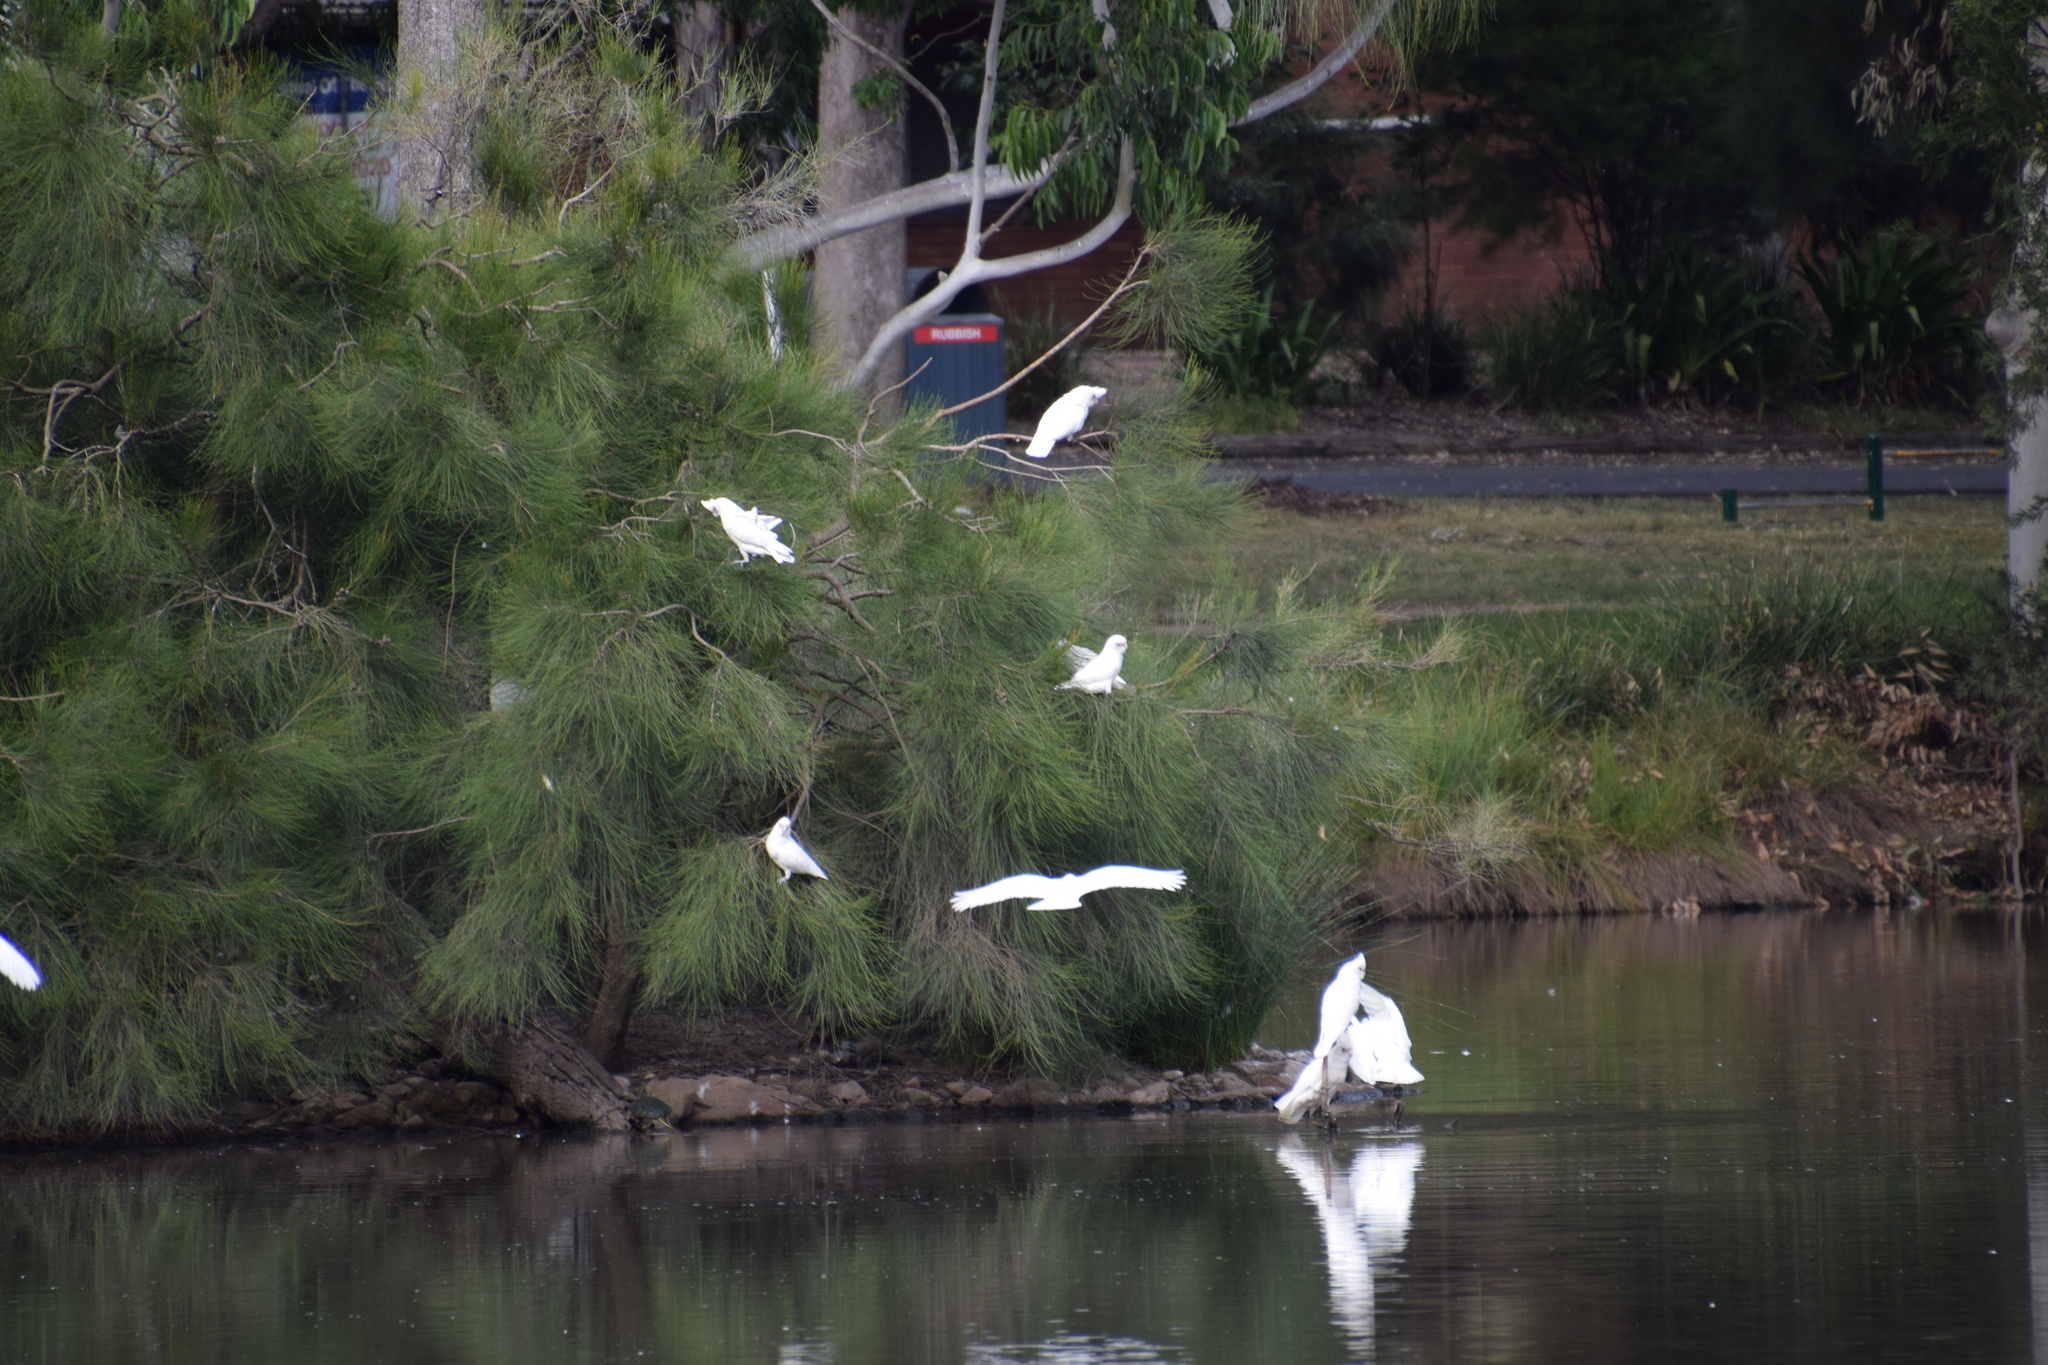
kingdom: Animalia
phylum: Chordata
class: Aves
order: Psittaciformes
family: Psittacidae
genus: Cacatua
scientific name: Cacatua sanguinea
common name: Little corella
